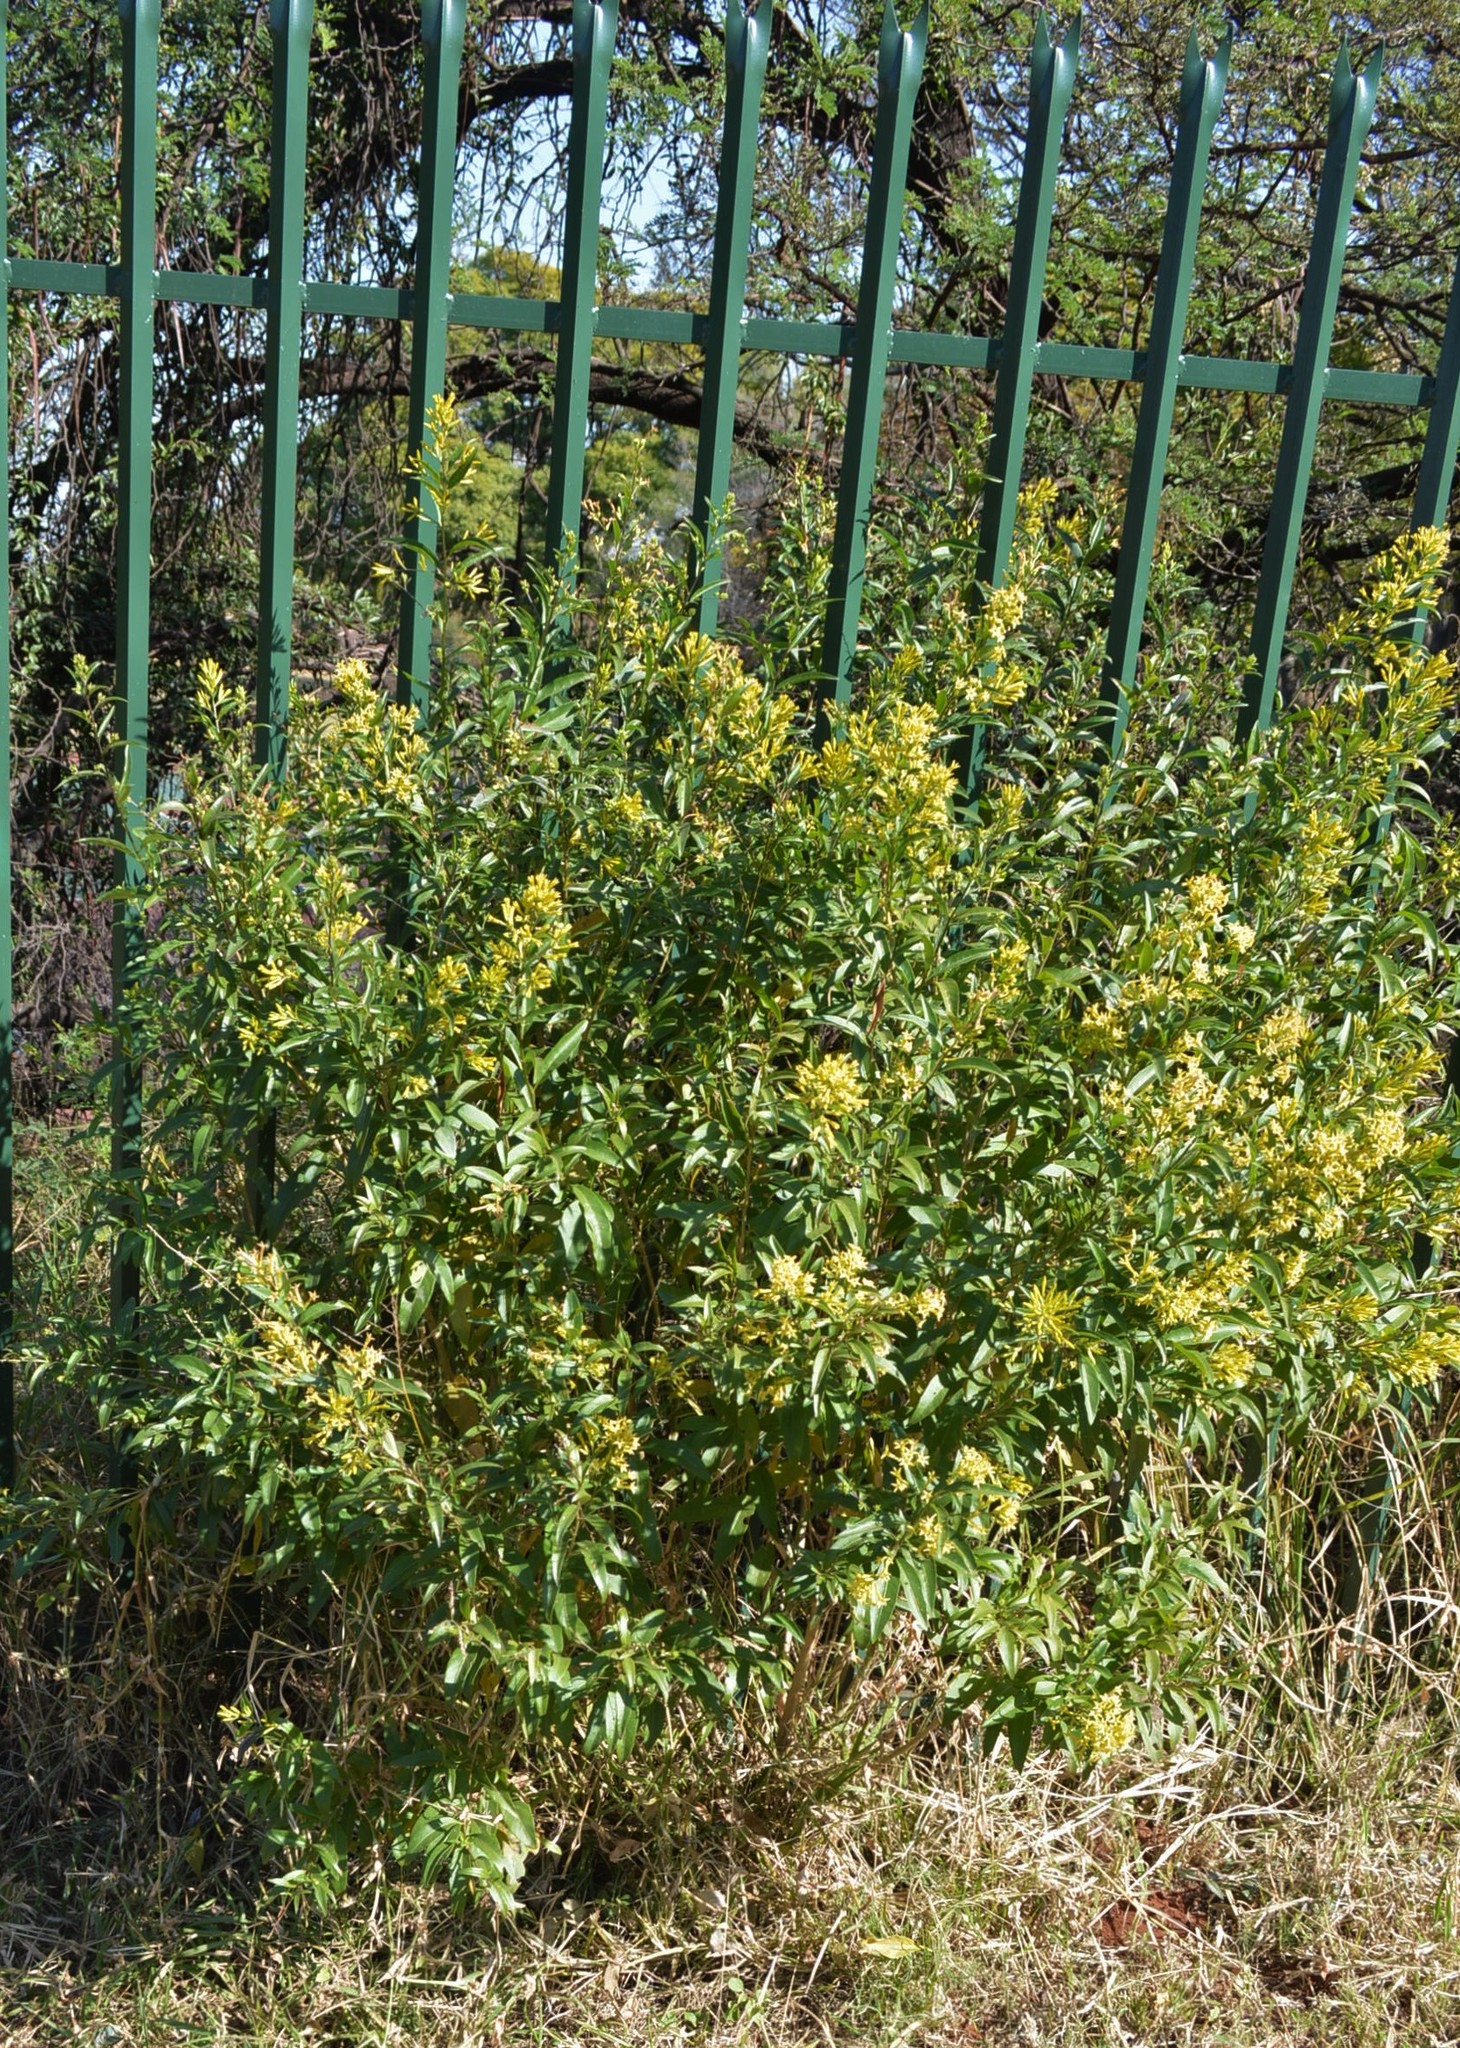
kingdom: Plantae
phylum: Tracheophyta
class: Magnoliopsida
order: Solanales
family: Solanaceae
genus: Cestrum
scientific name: Cestrum parqui
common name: Chilean cestrum
